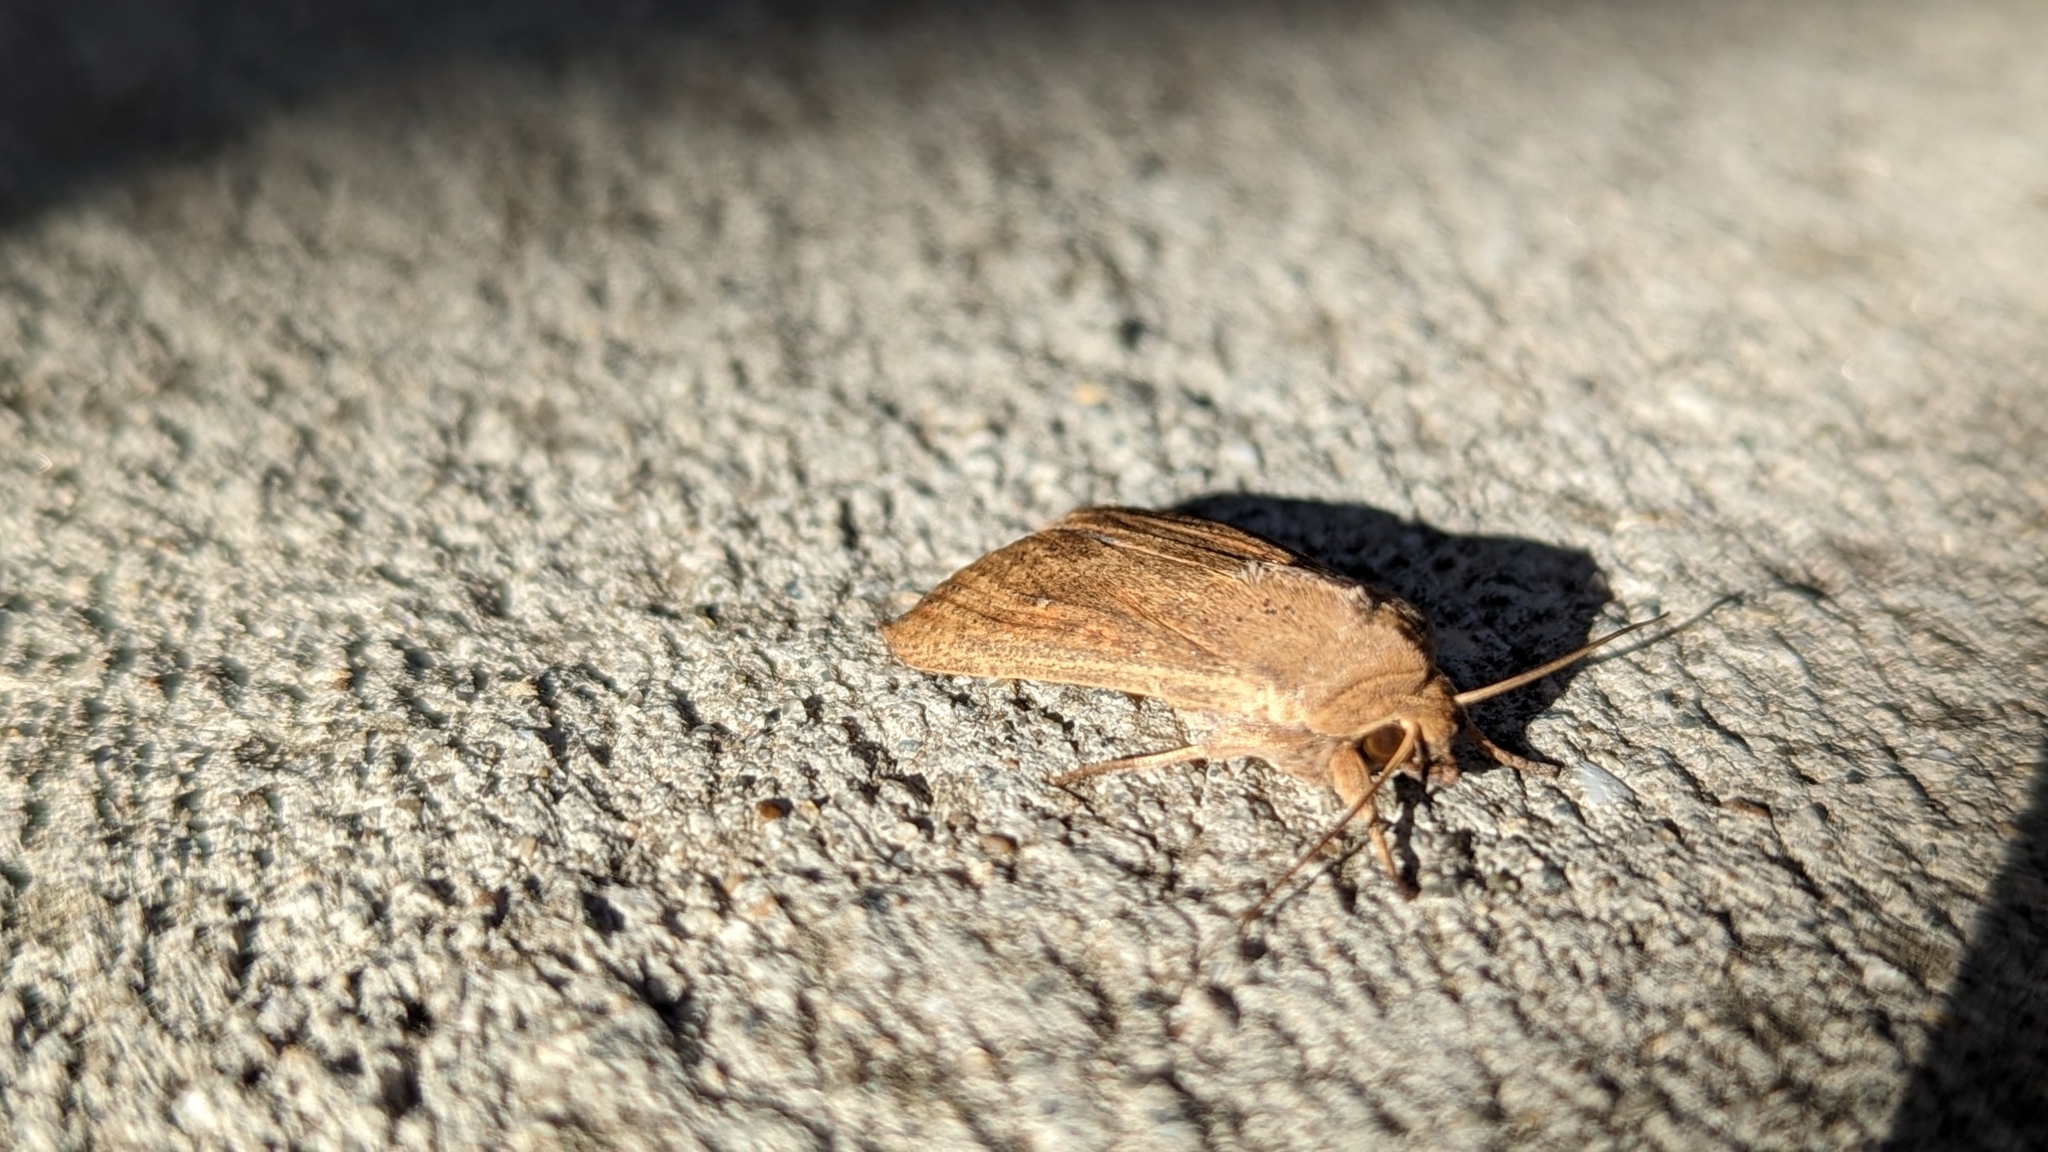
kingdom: Animalia
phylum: Arthropoda
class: Insecta
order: Lepidoptera
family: Noctuidae
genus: Mythimna
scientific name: Mythimna separata
